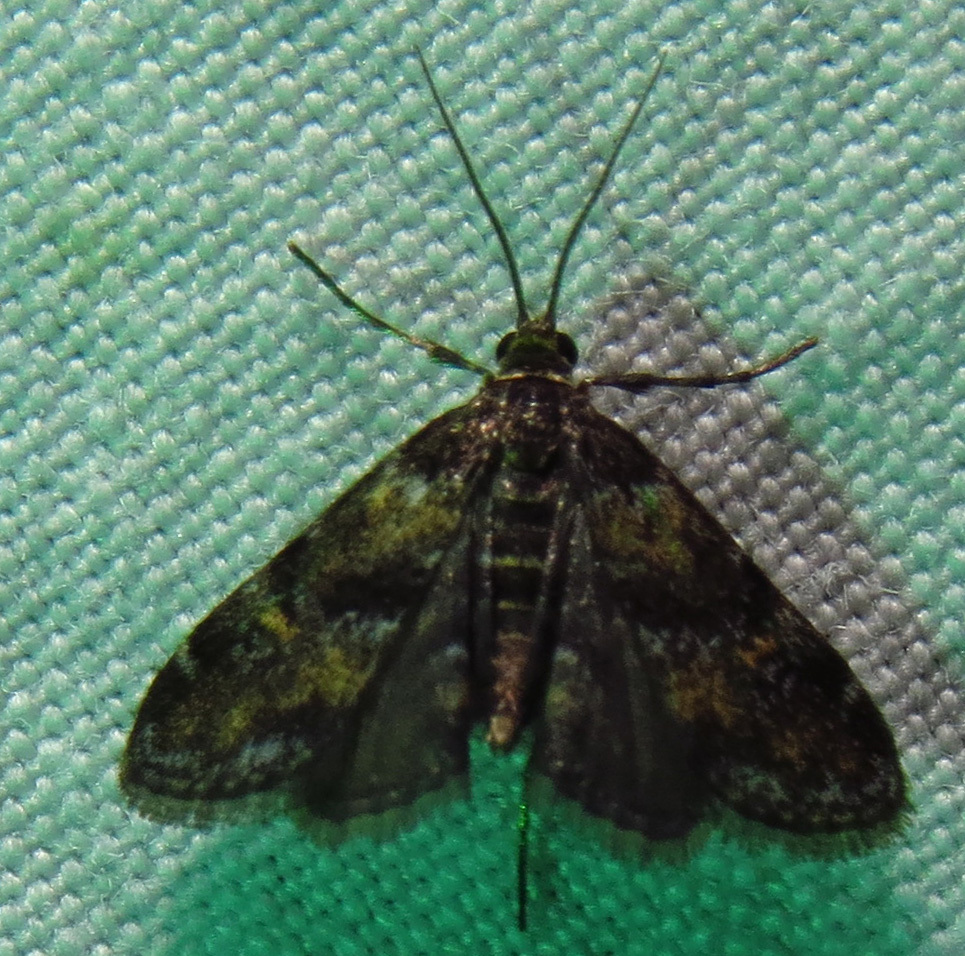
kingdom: Animalia
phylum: Arthropoda
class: Insecta
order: Lepidoptera
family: Crambidae
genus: Elophila
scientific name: Elophila obliteralis
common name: Waterlily leafcutter moth
